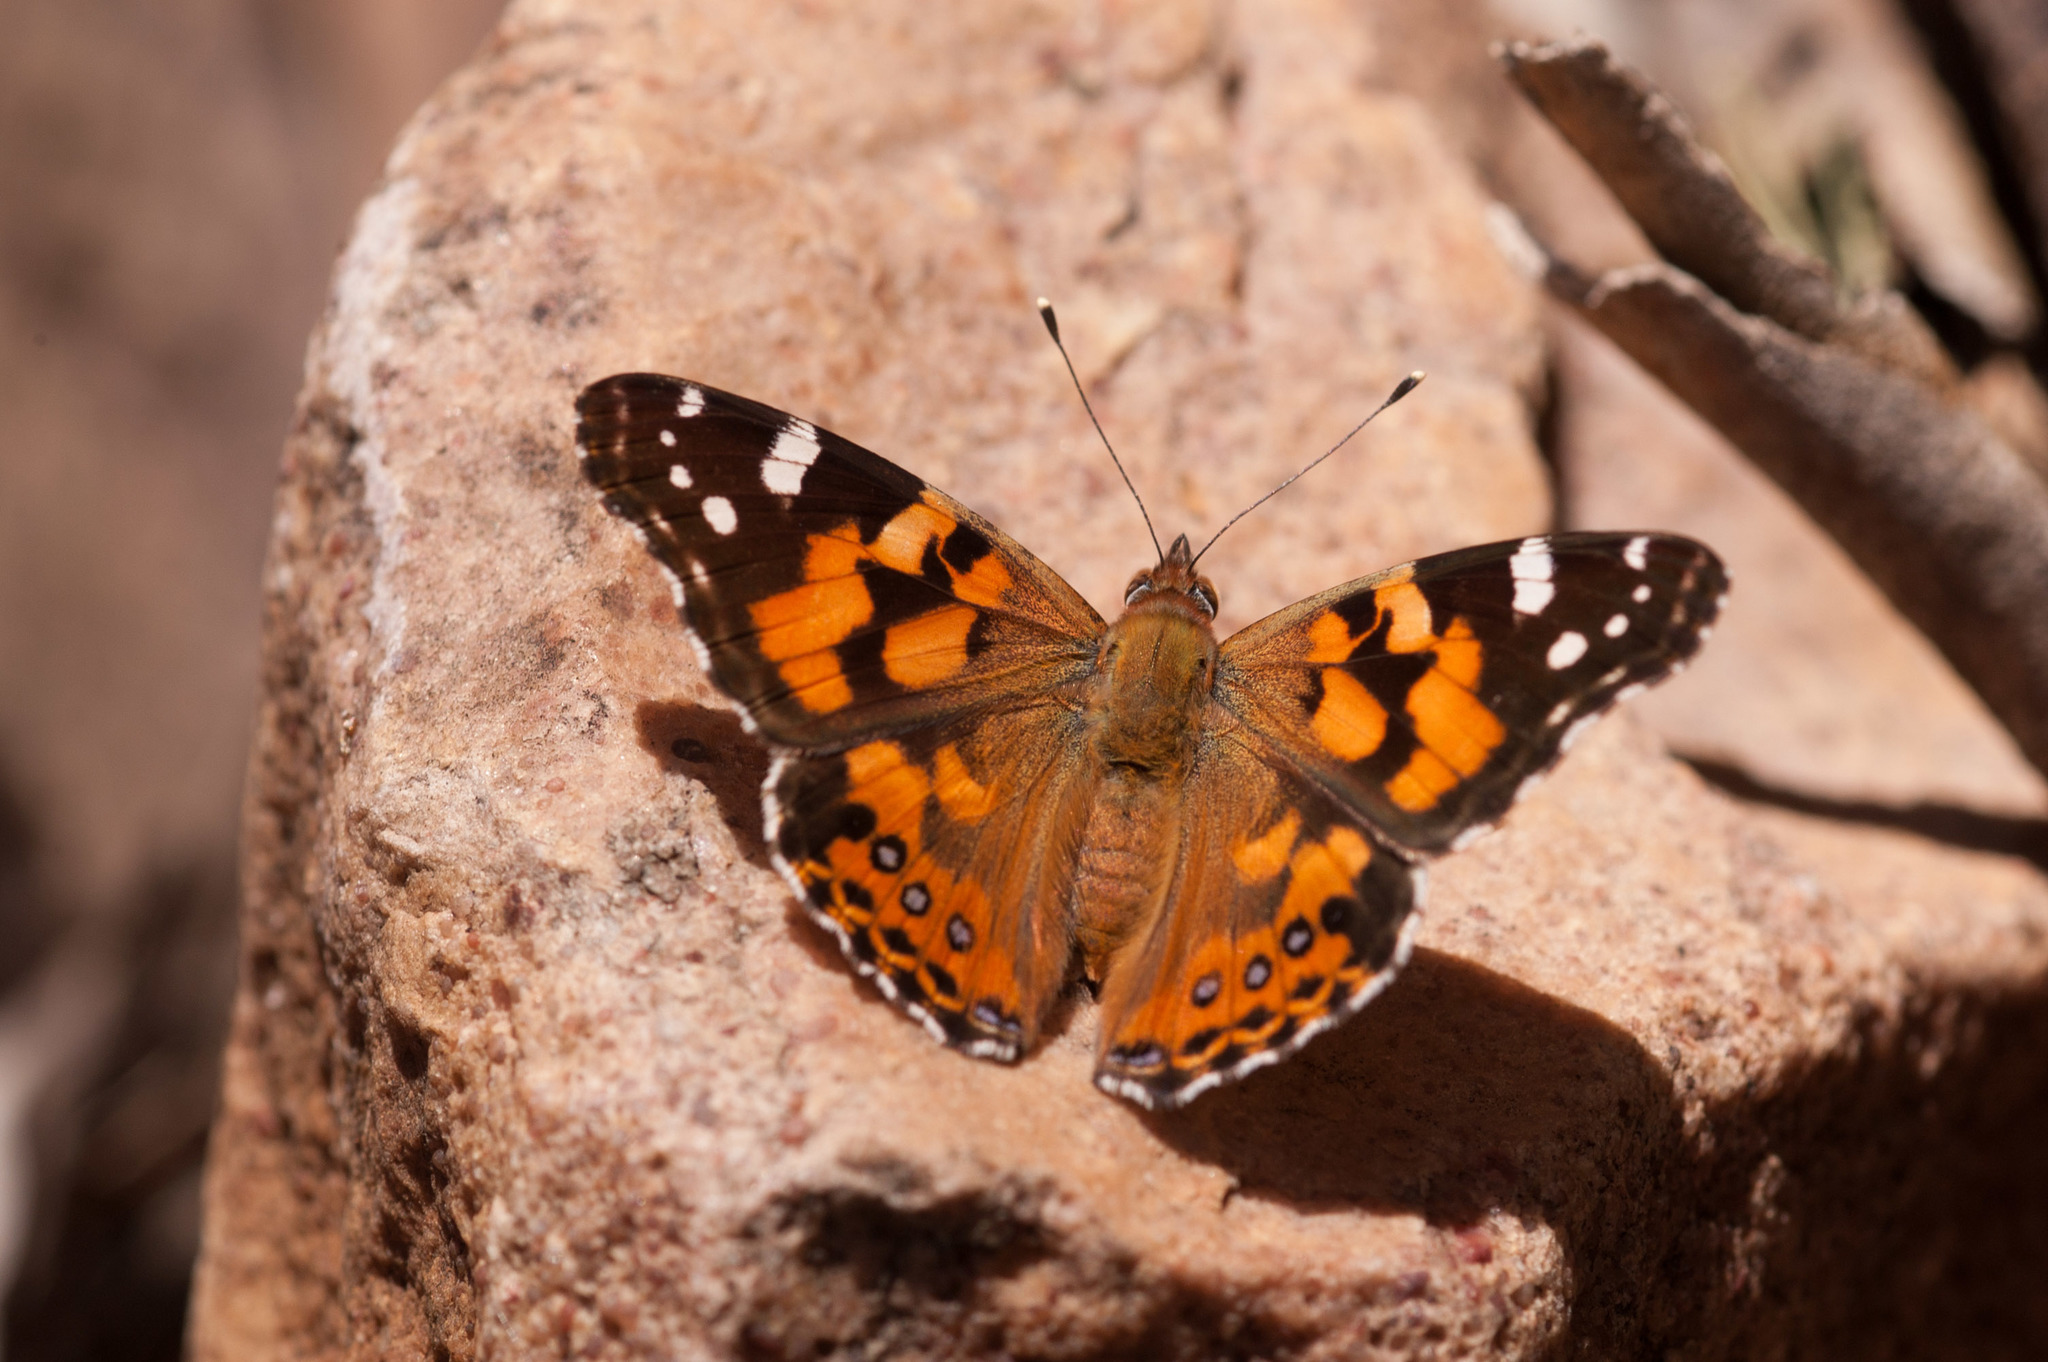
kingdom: Animalia
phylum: Arthropoda
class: Insecta
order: Lepidoptera
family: Nymphalidae
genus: Vanessa
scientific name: Vanessa kershawi
